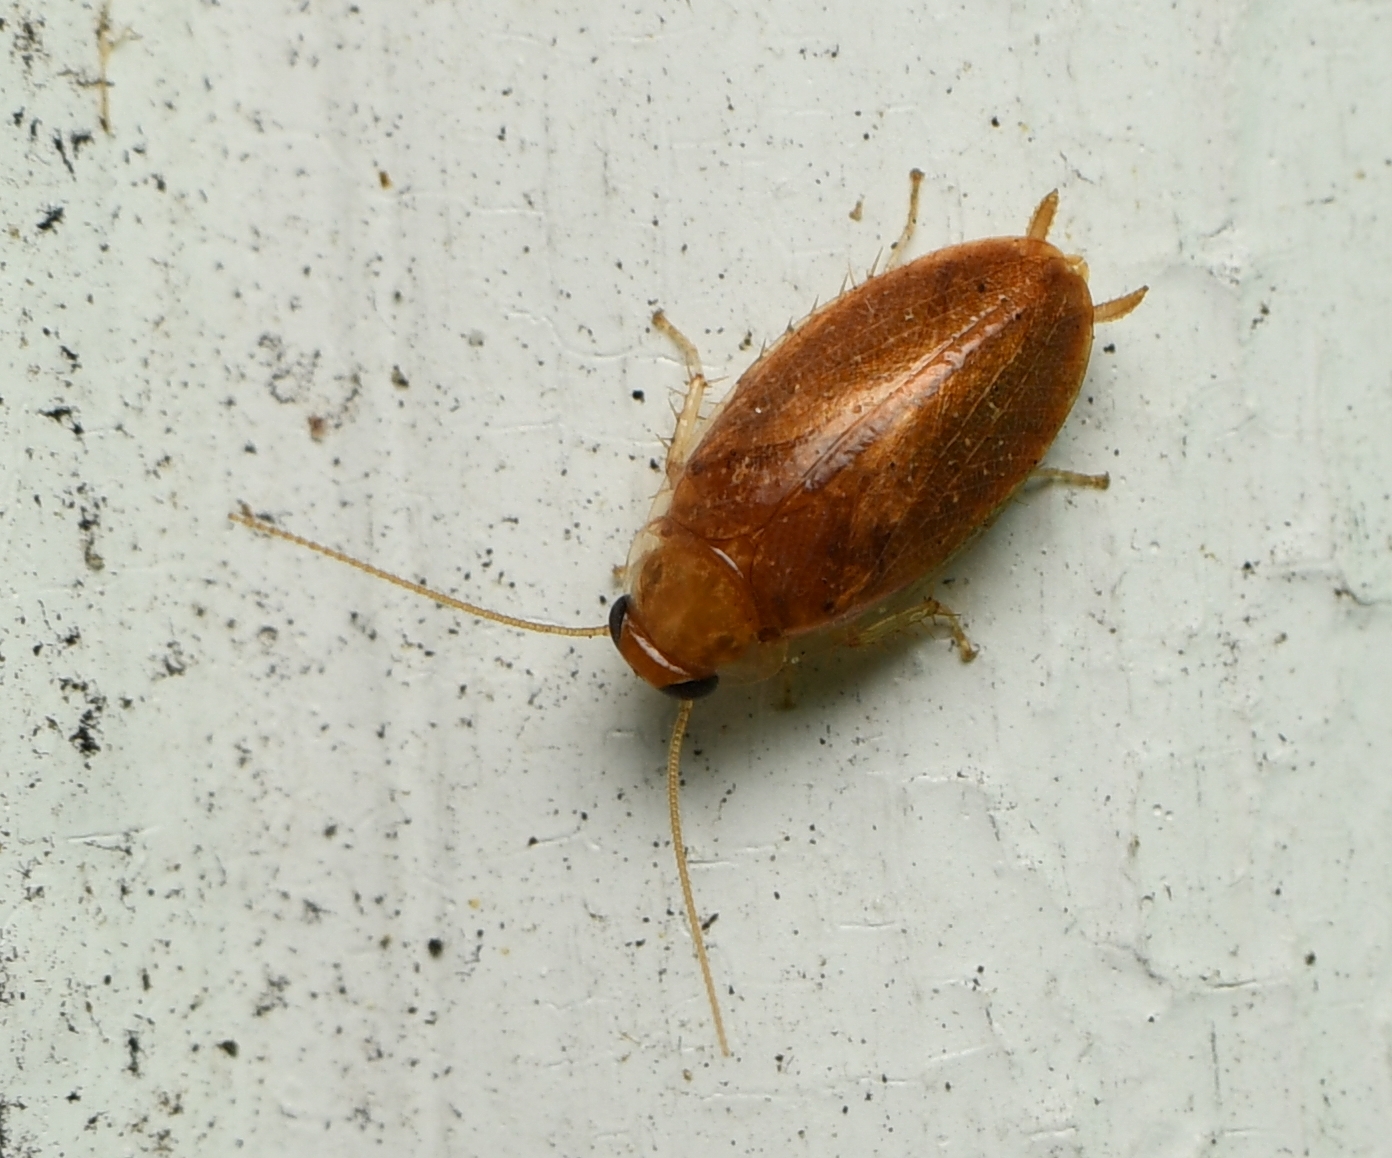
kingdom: Animalia
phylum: Arthropoda
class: Insecta
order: Blattodea
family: Ectobiidae
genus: Plectoptera
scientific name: Plectoptera poeyi
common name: Florida beetle cockroach
